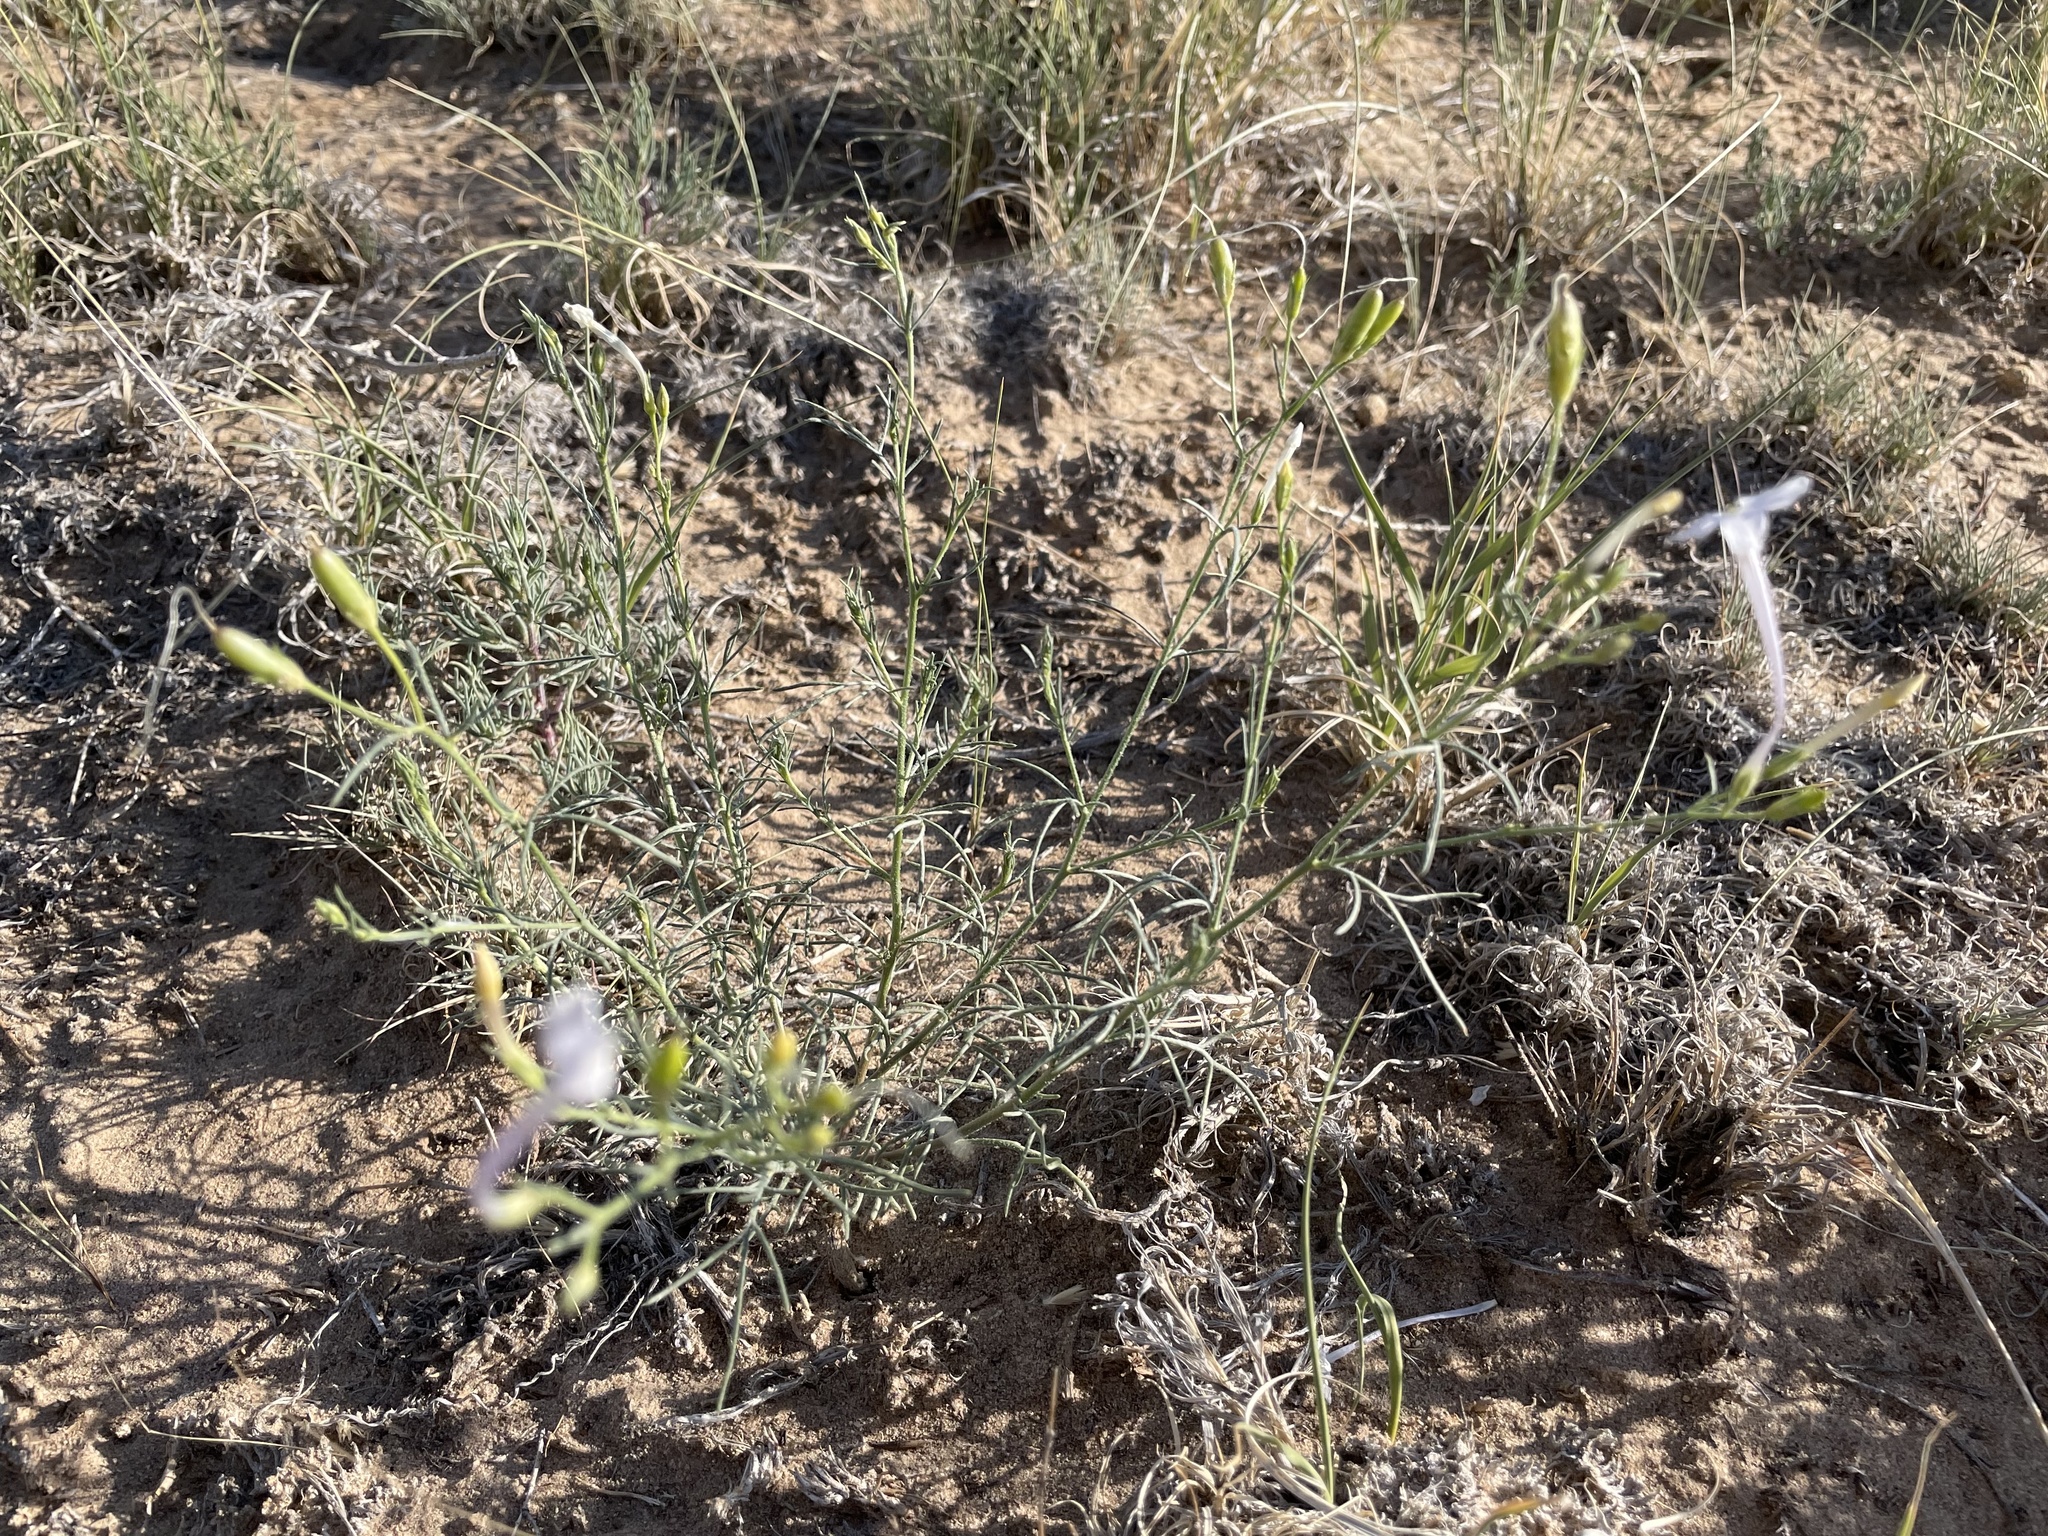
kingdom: Plantae
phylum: Tracheophyta
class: Magnoliopsida
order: Ericales
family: Polemoniaceae
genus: Ipomopsis
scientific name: Ipomopsis longiflora
